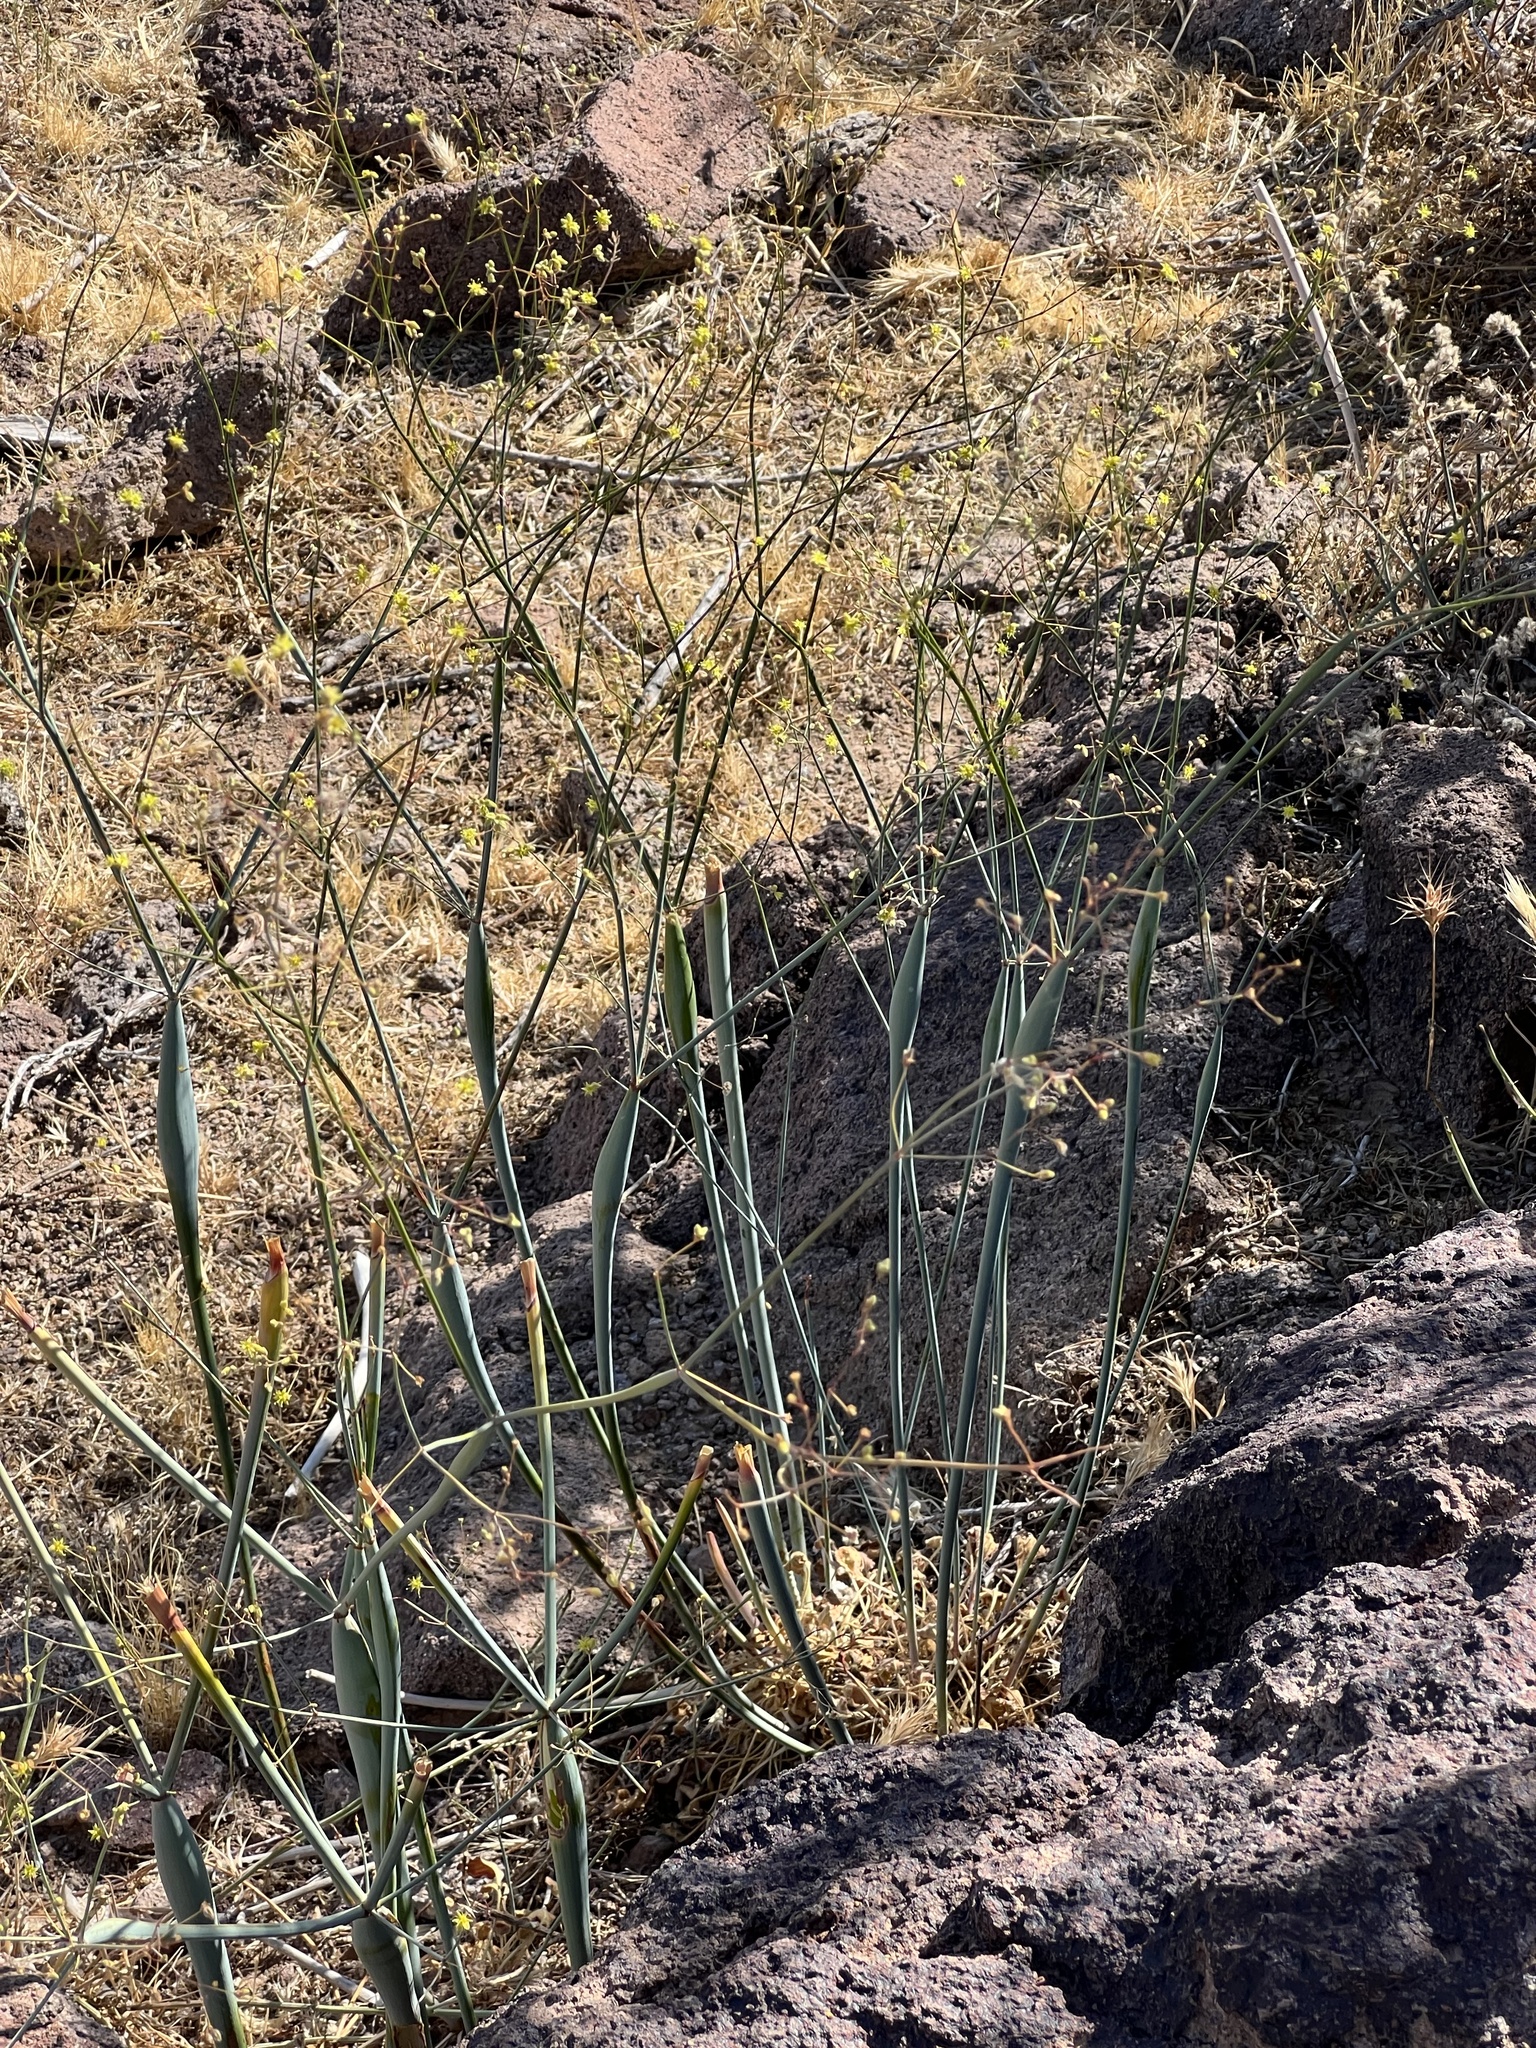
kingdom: Plantae
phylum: Tracheophyta
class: Magnoliopsida
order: Caryophyllales
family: Polygonaceae
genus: Eriogonum
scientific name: Eriogonum inflatum
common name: Desert trumpet
